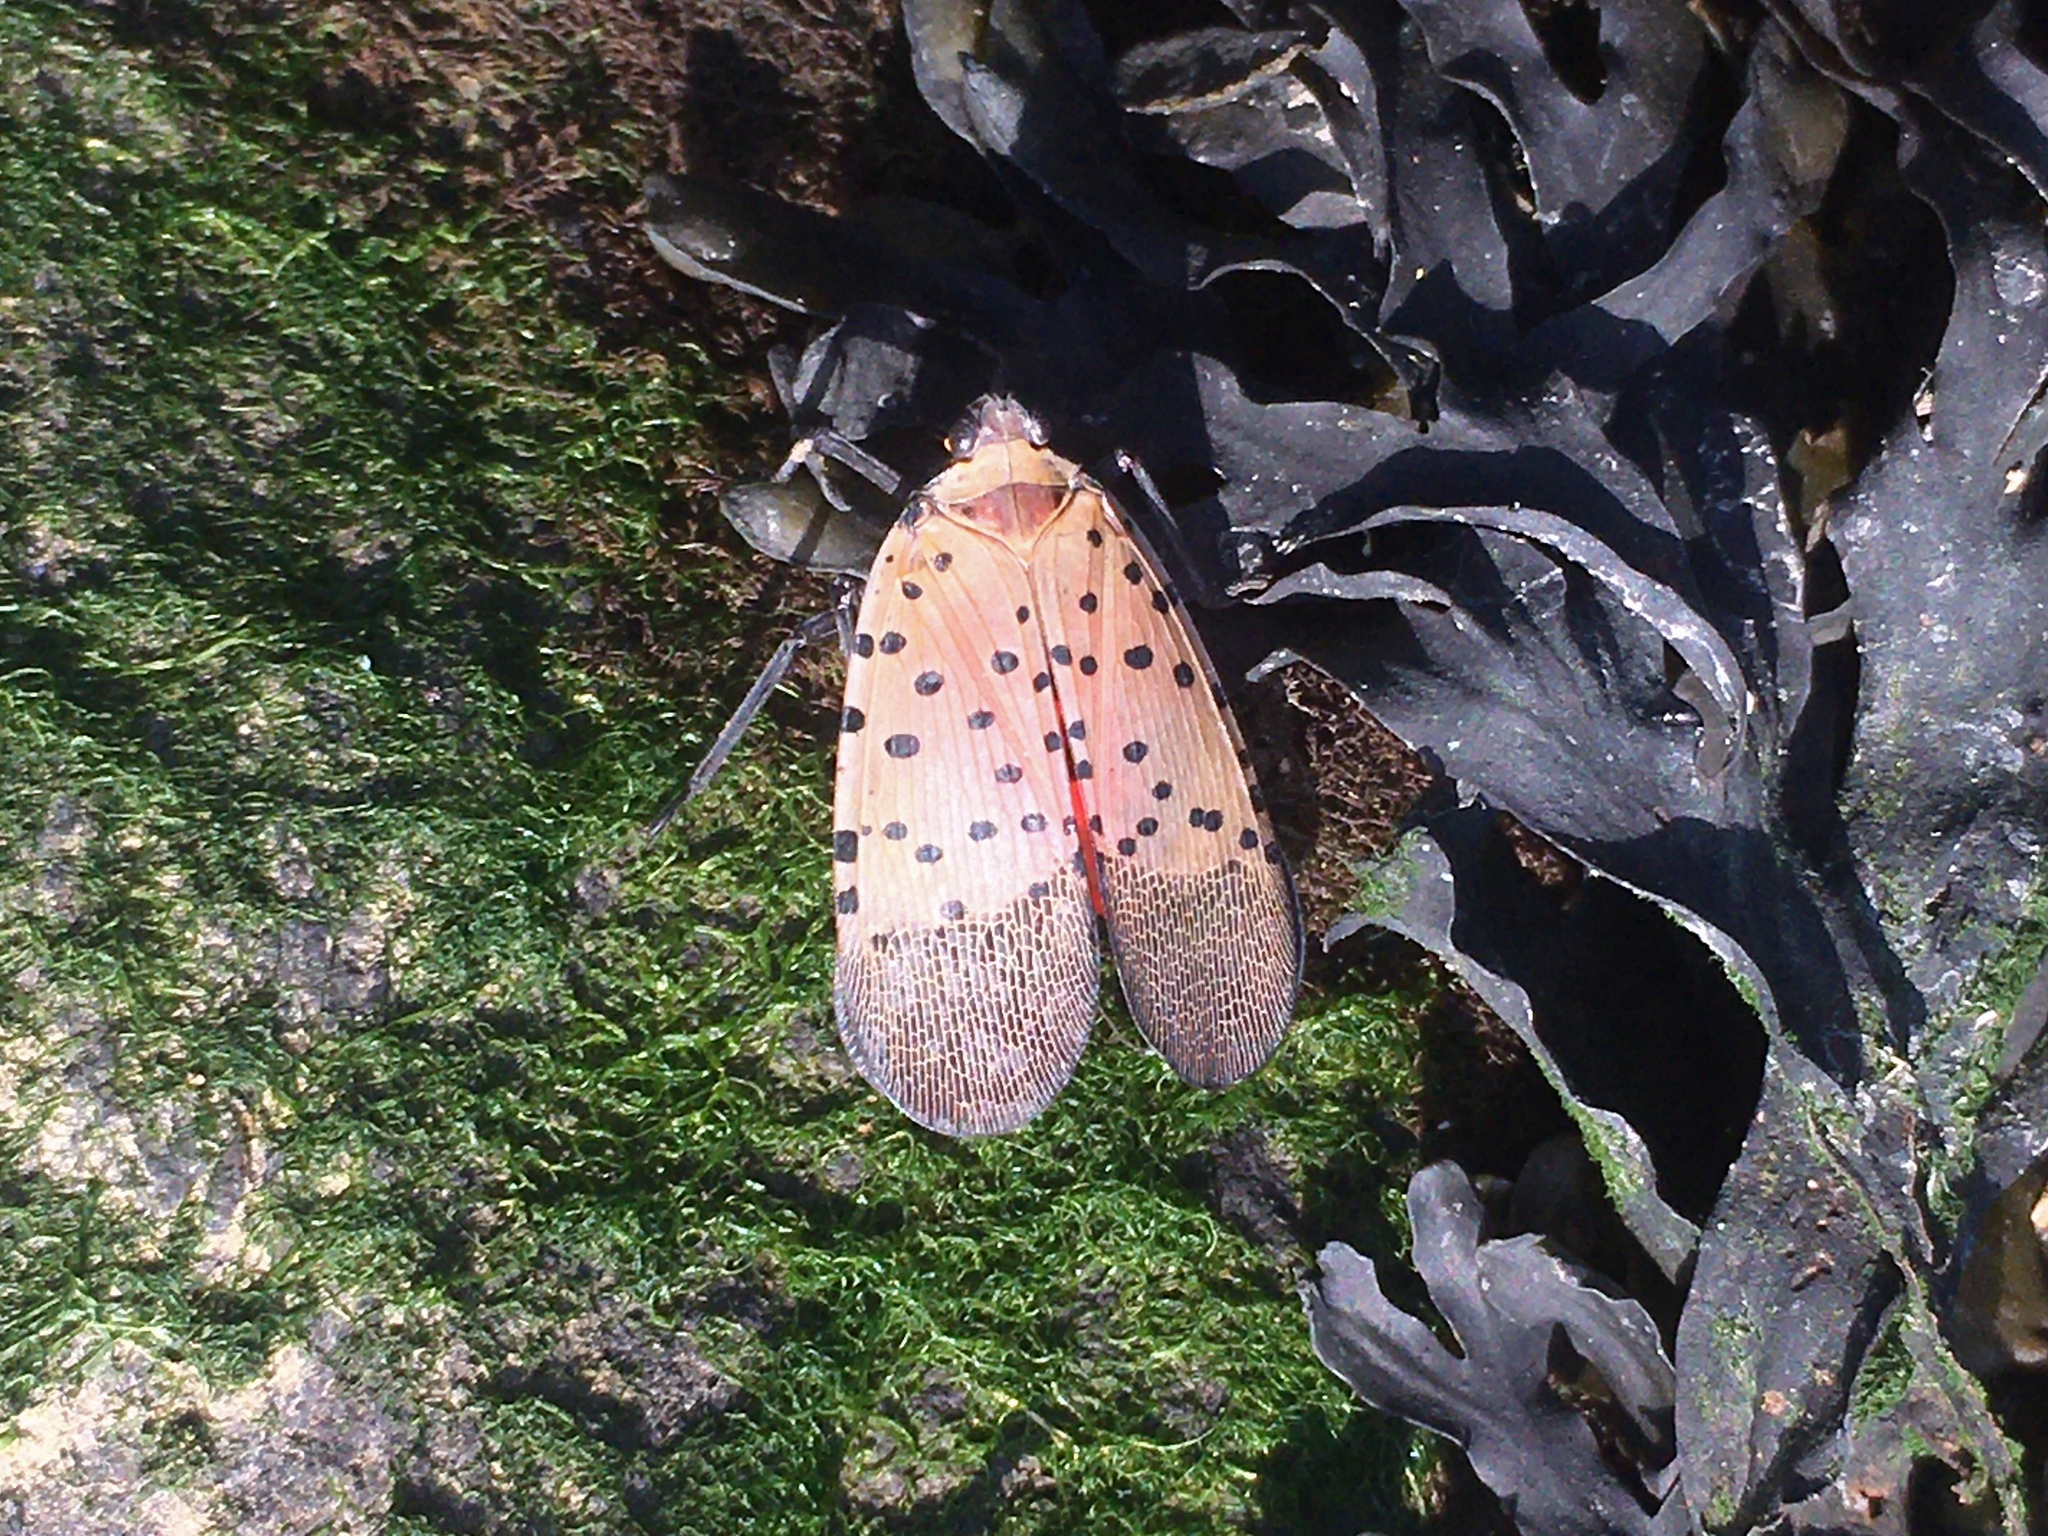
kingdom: Animalia
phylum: Arthropoda
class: Insecta
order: Hemiptera
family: Fulgoridae
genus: Lycorma
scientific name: Lycorma delicatula
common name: Spotted lanternfly
